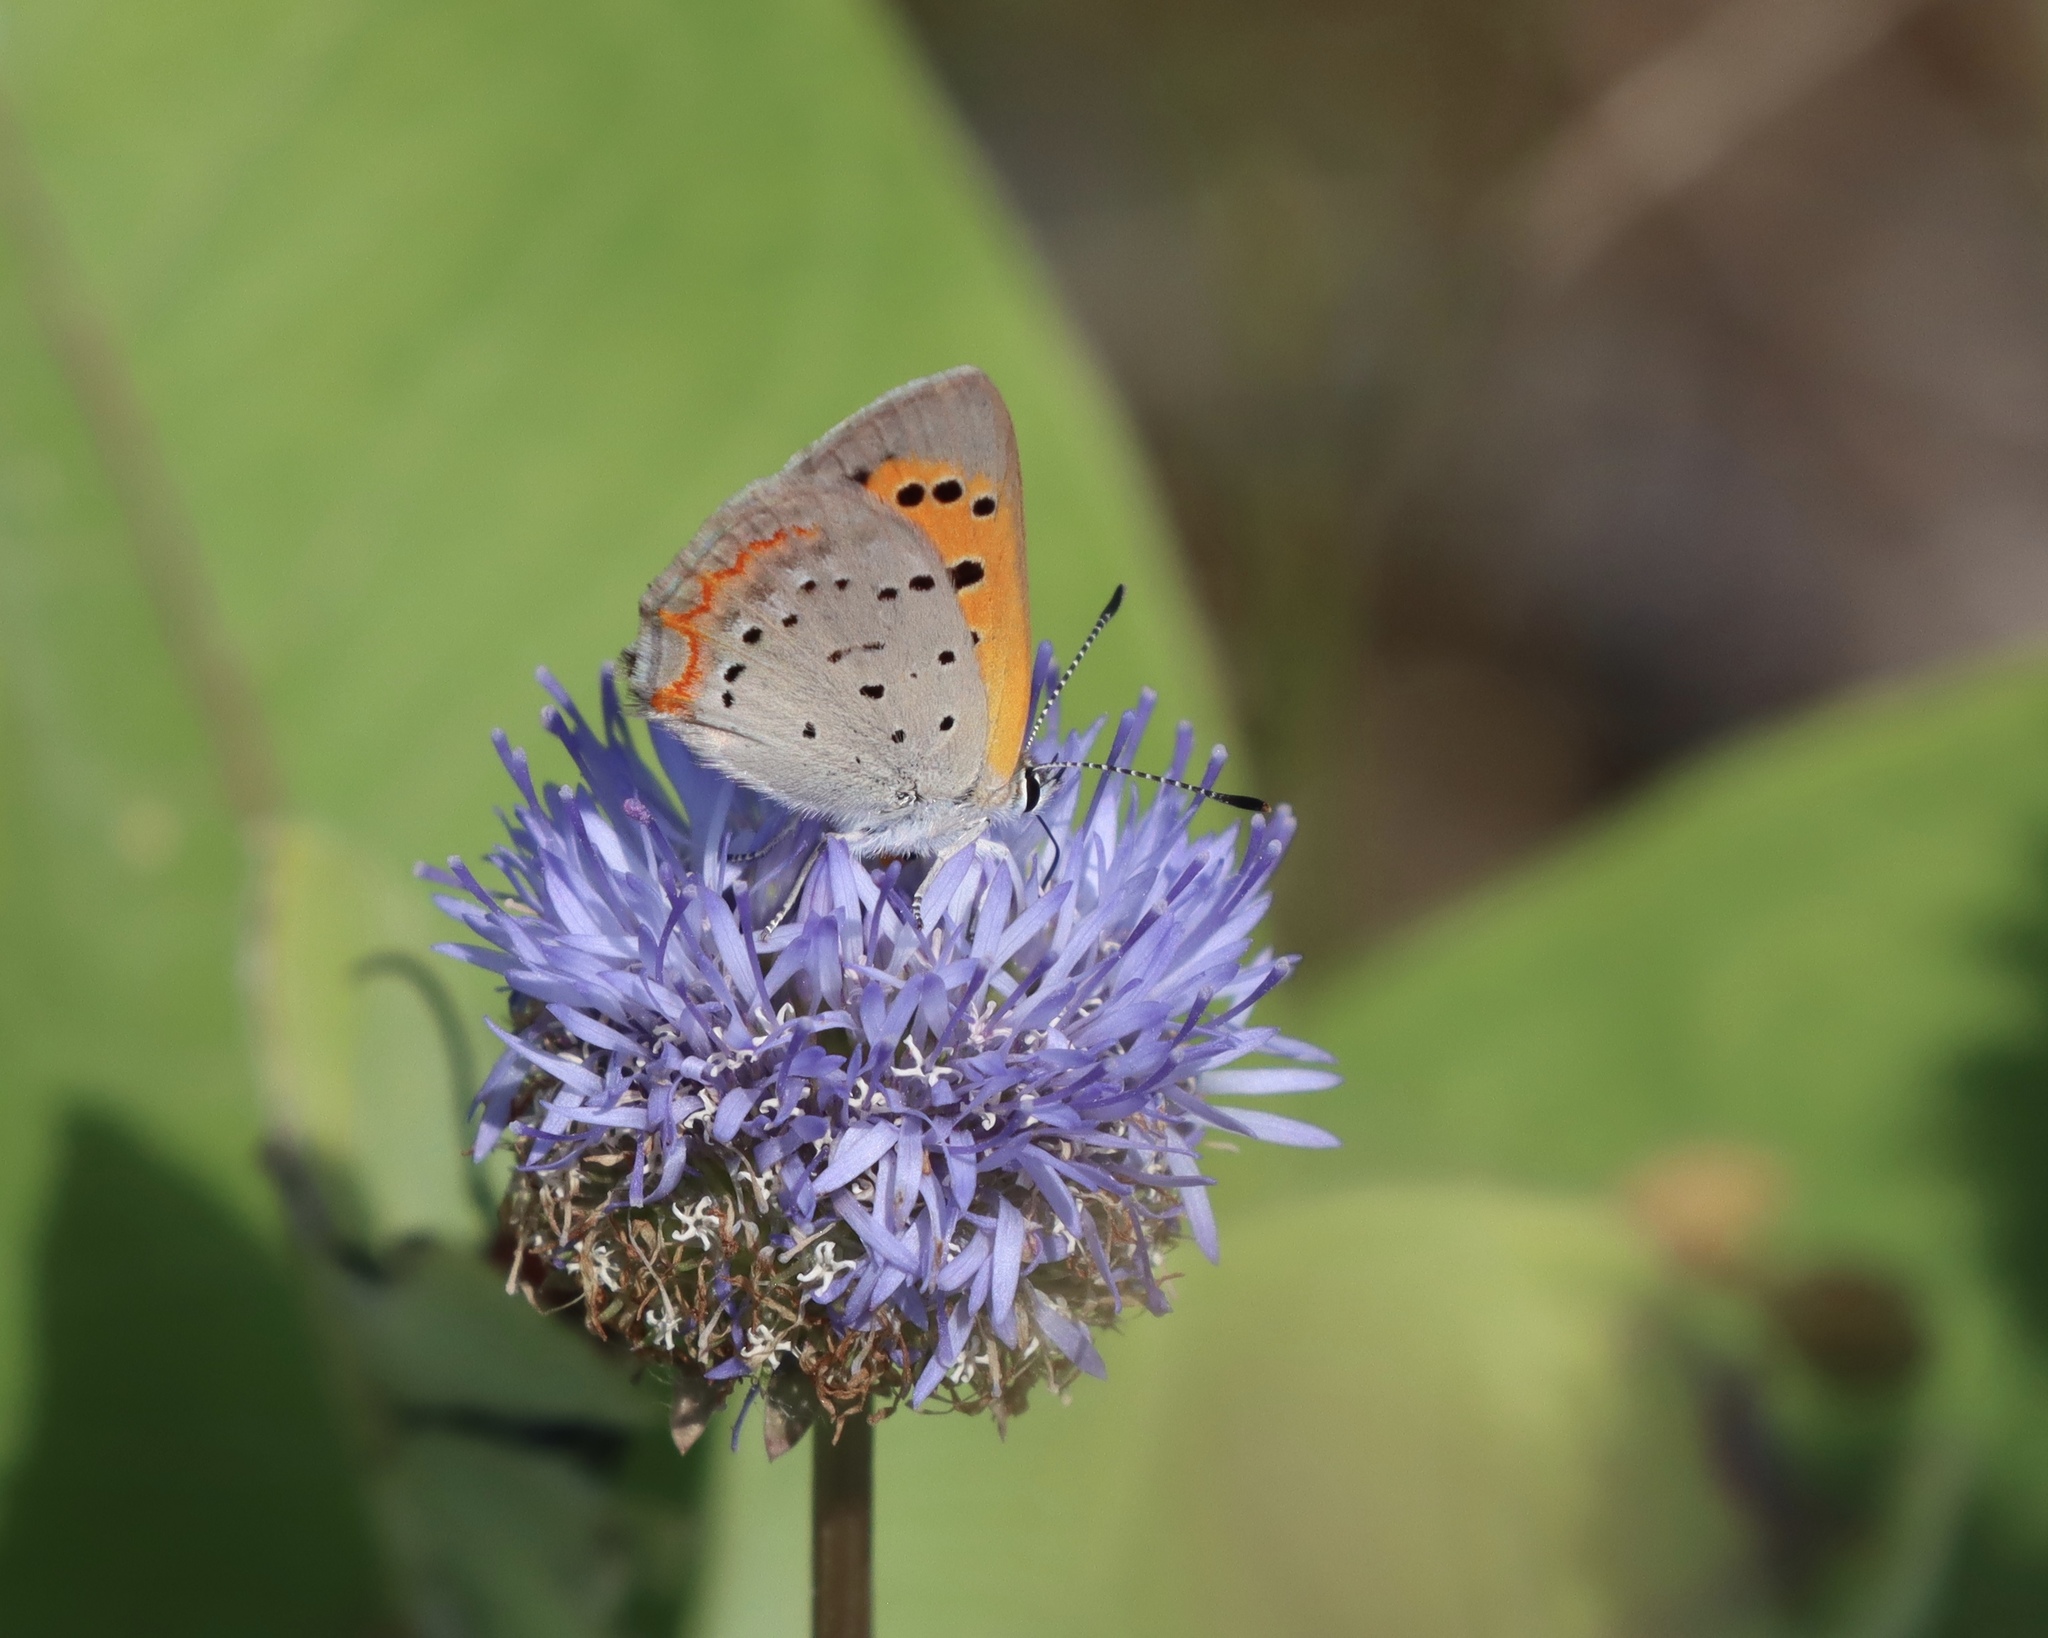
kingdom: Animalia
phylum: Arthropoda
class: Insecta
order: Lepidoptera
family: Lycaenidae
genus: Lycaena
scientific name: Lycaena hypophlaeas
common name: American copper
